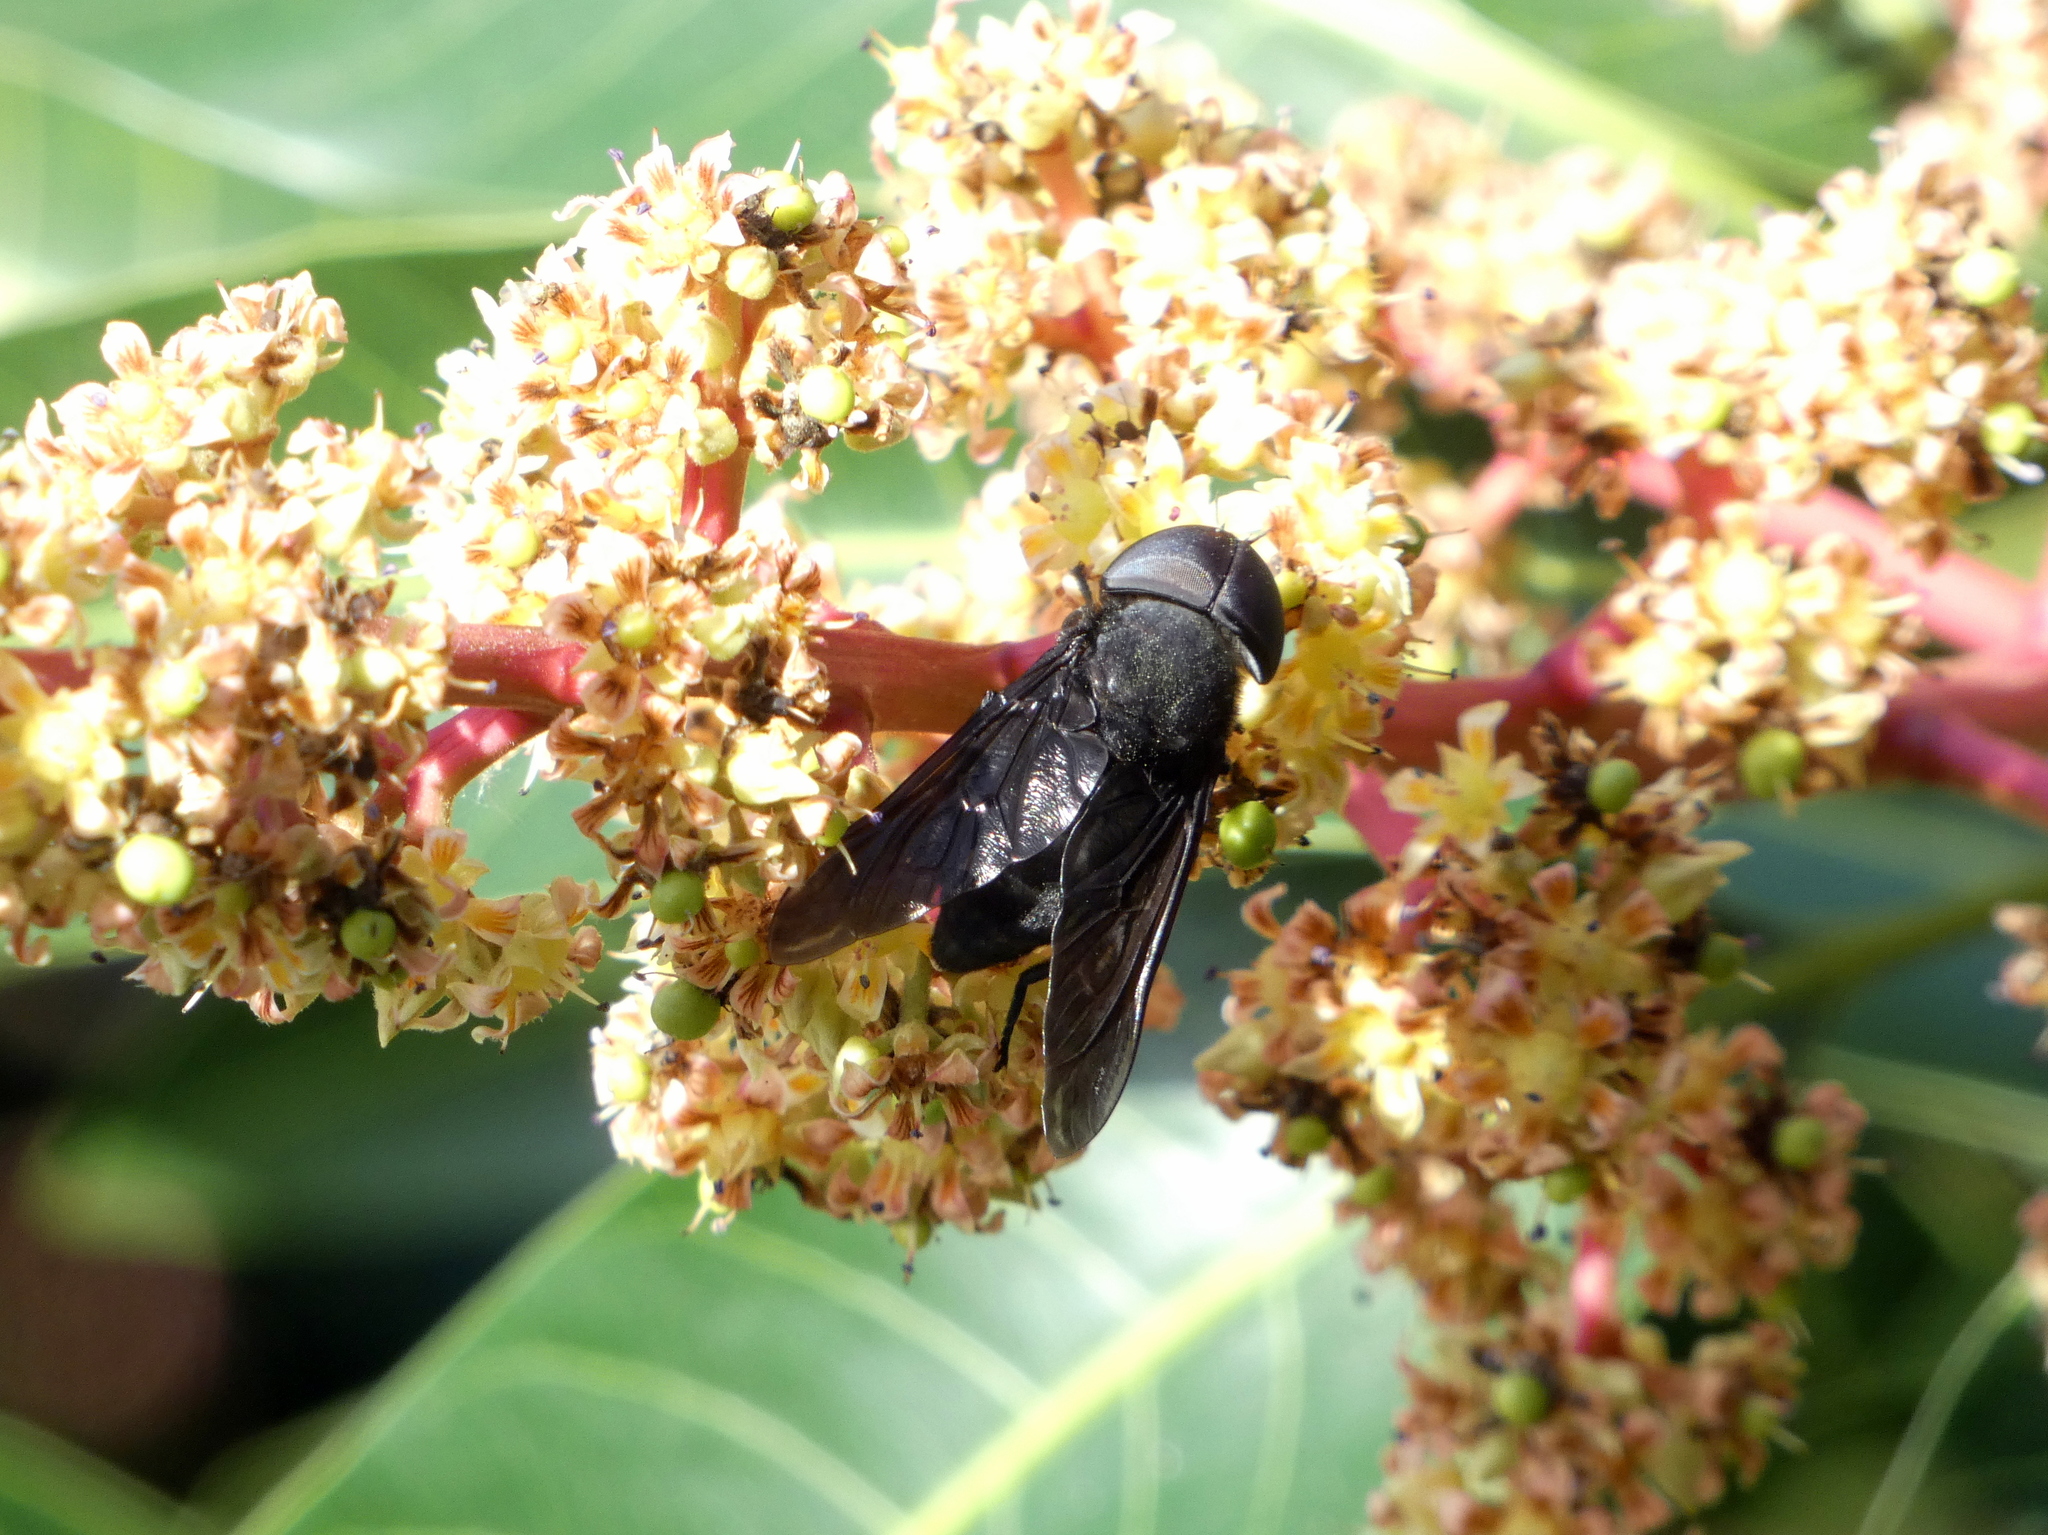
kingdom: Animalia
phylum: Arthropoda
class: Insecta
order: Diptera
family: Tabanidae
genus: Tabanus
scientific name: Tabanus atratus
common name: Black horse fly
